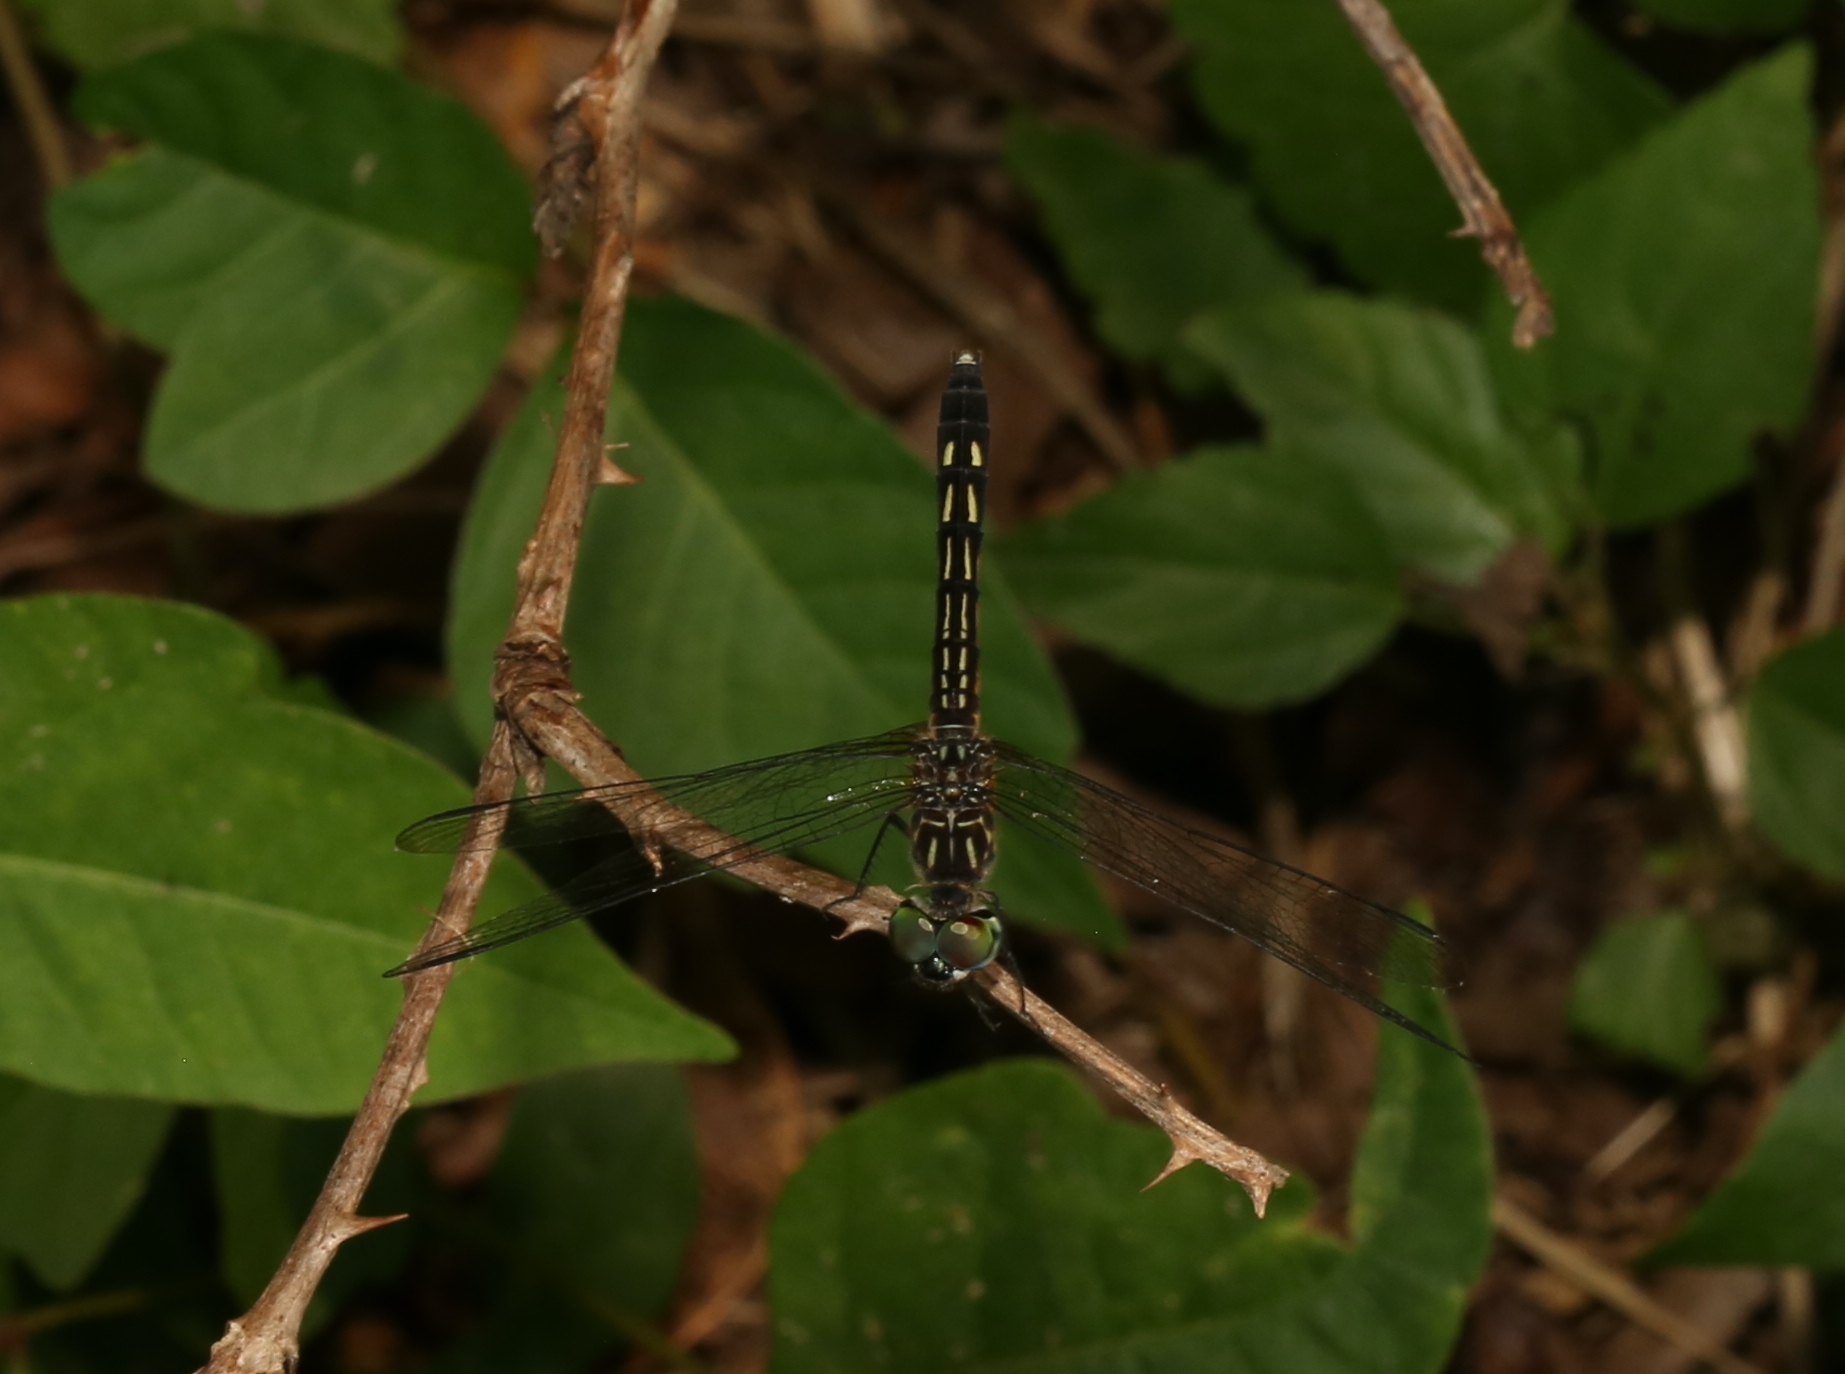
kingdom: Animalia
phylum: Arthropoda
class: Insecta
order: Odonata
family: Libellulidae
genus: Pachydiplax
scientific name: Pachydiplax longipennis
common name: Blue dasher
